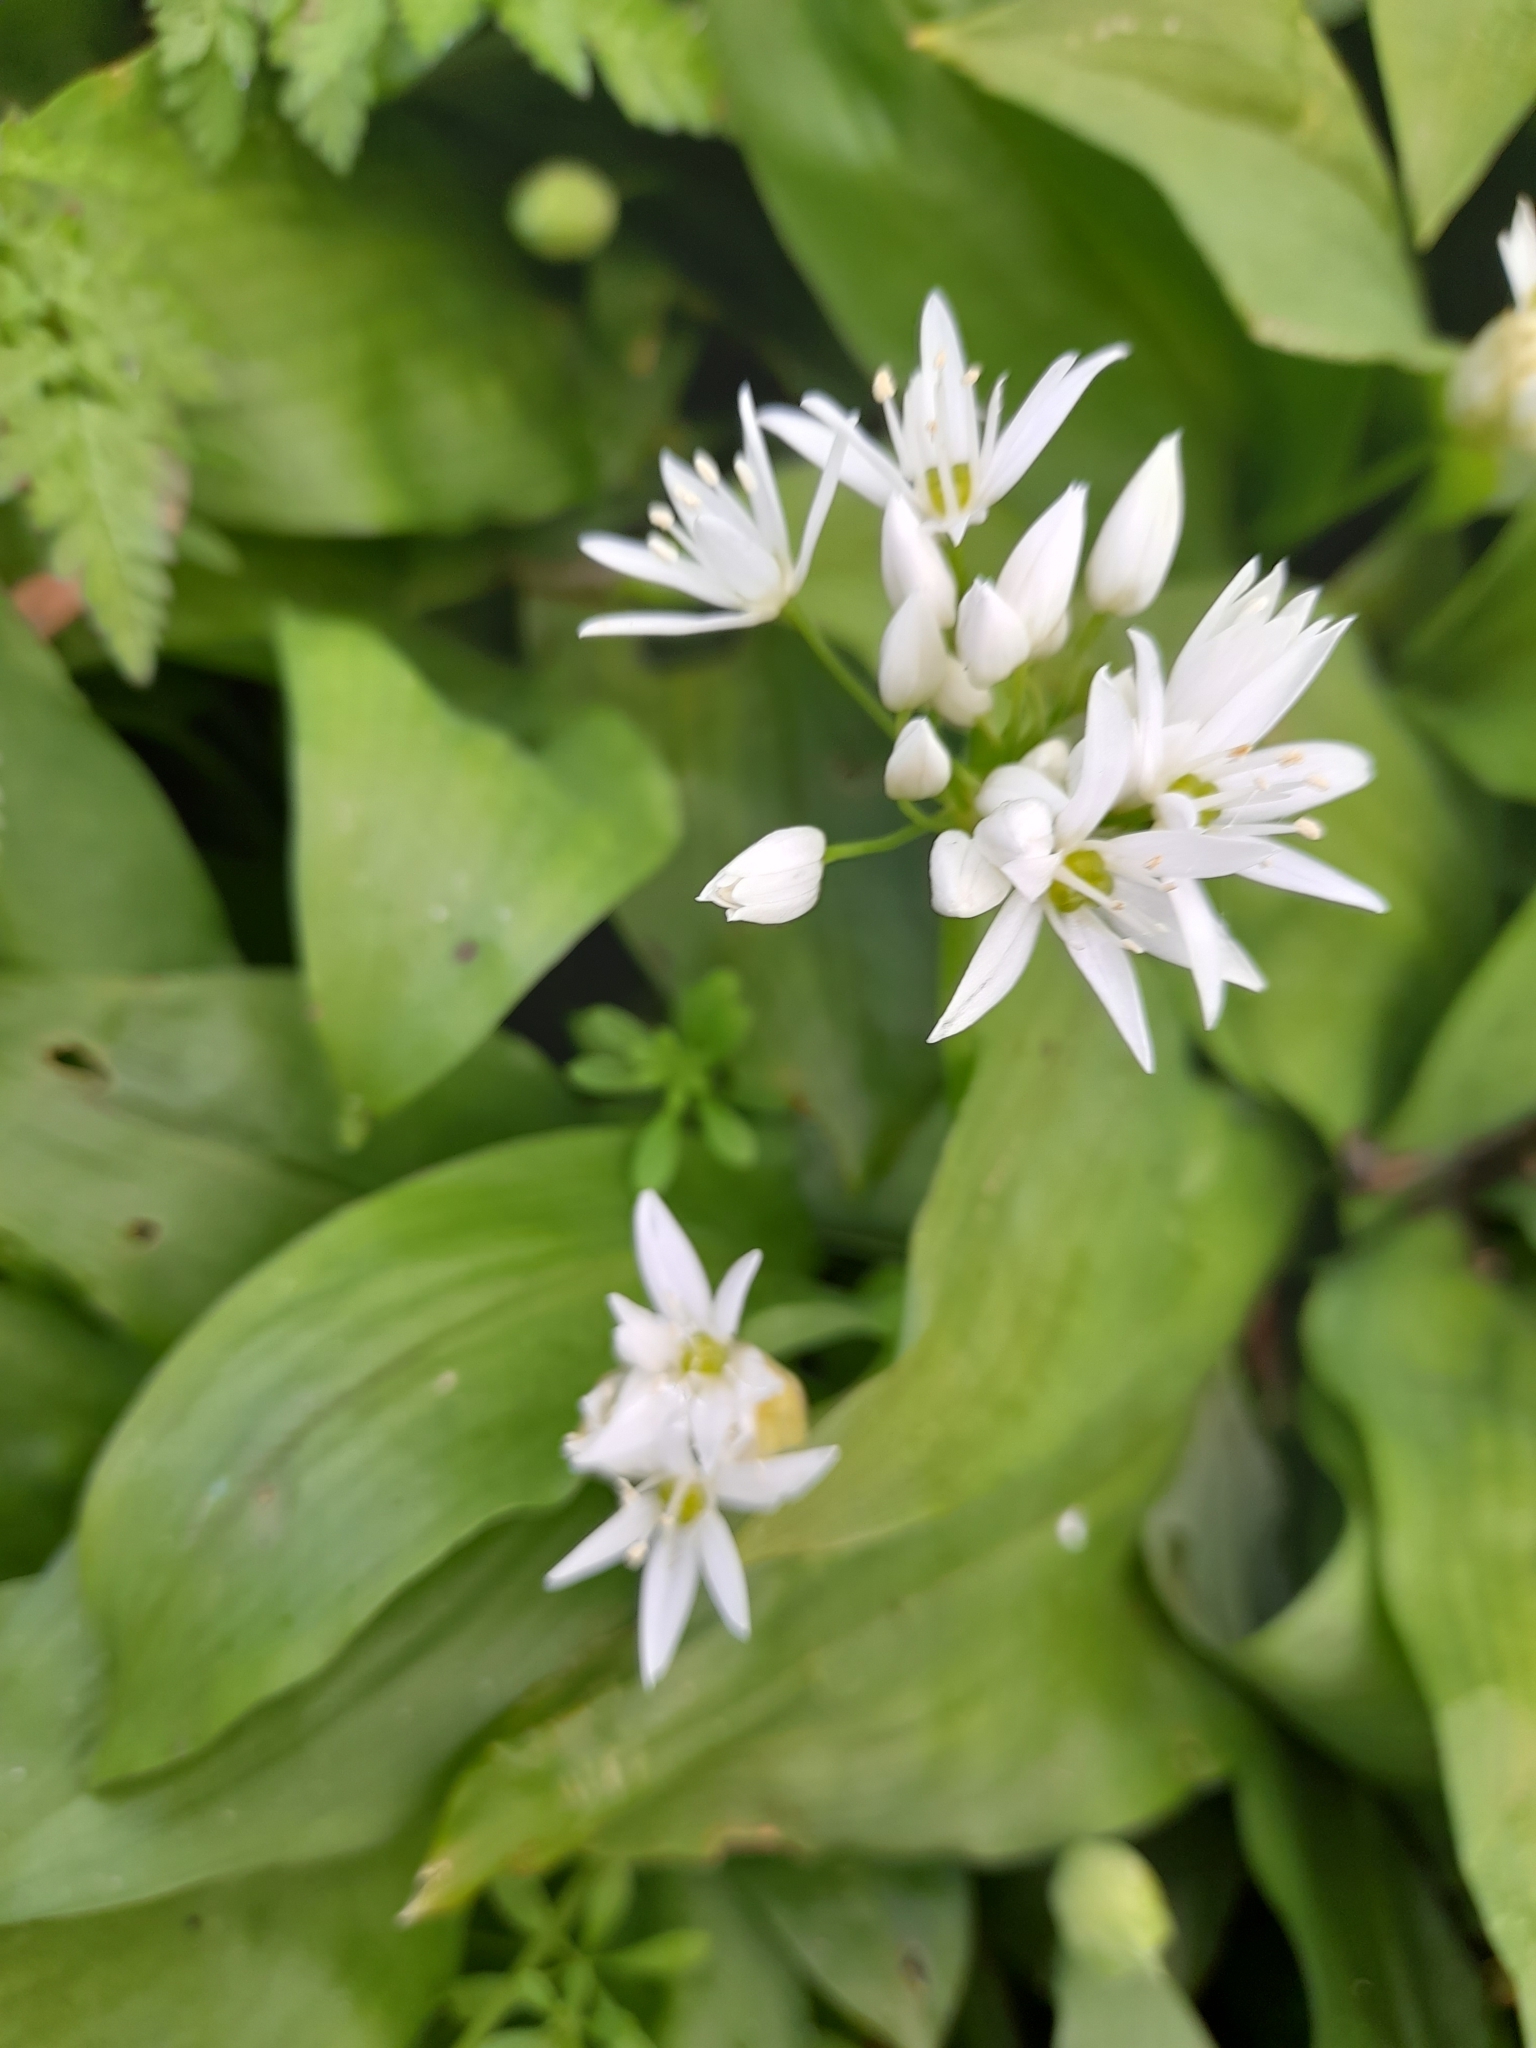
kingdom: Plantae
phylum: Tracheophyta
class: Liliopsida
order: Asparagales
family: Amaryllidaceae
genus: Allium
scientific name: Allium ursinum
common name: Ramsons
